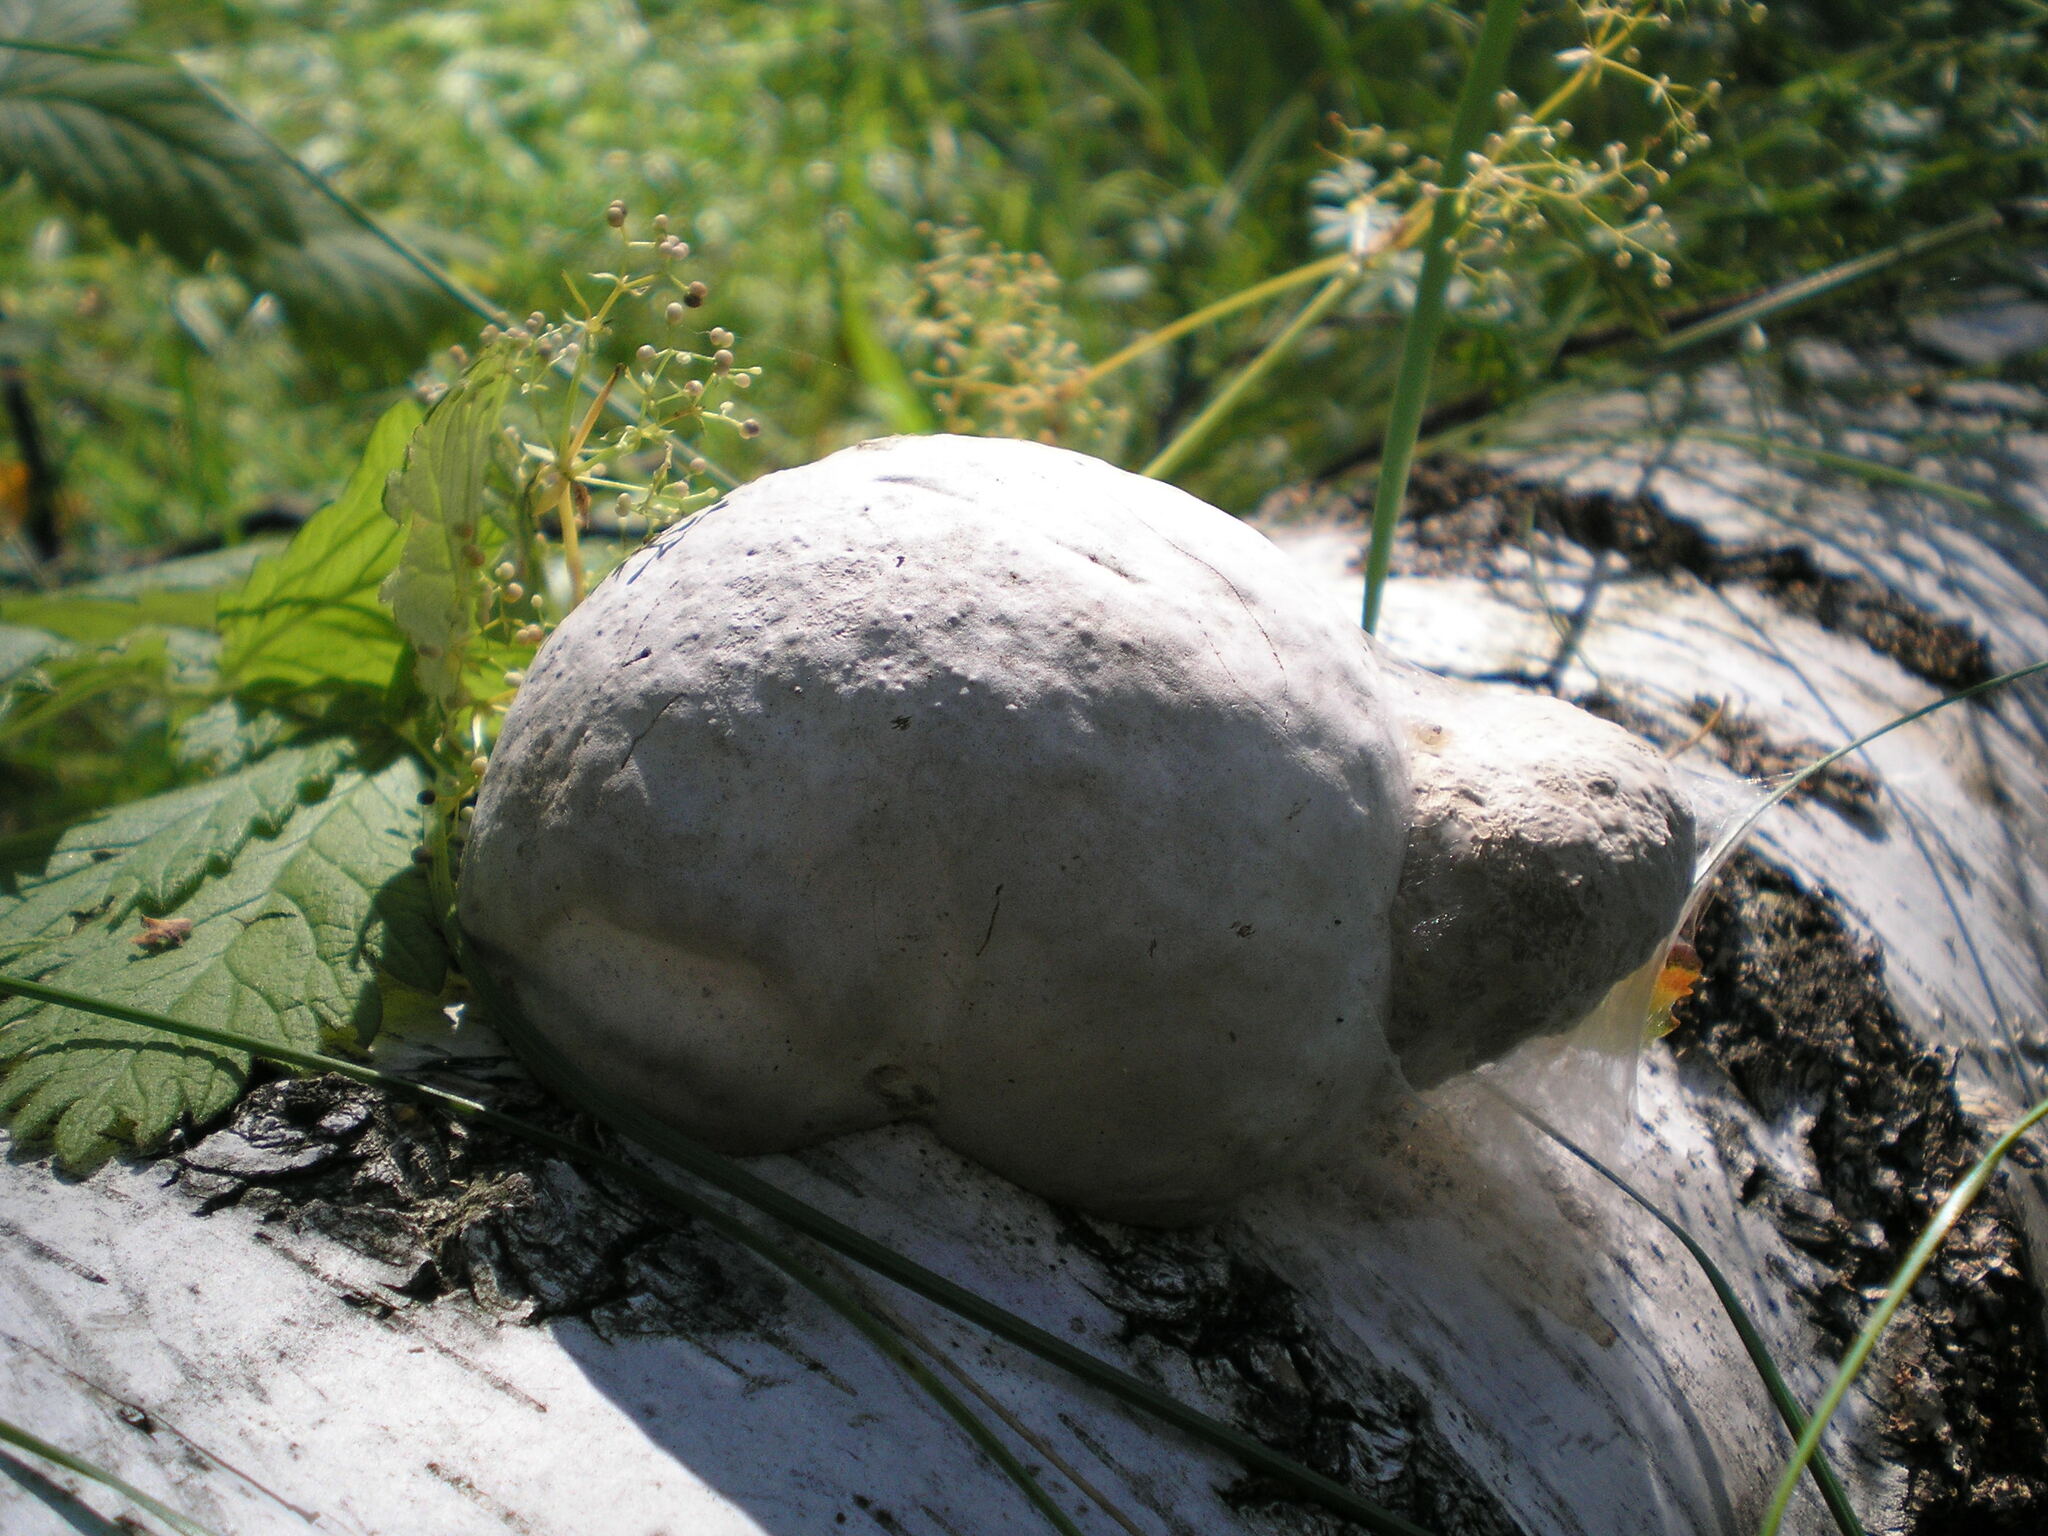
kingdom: Fungi
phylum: Basidiomycota
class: Agaricomycetes
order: Polyporales
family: Polyporaceae
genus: Fomes
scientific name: Fomes fomentarius
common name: Hoof fungus
